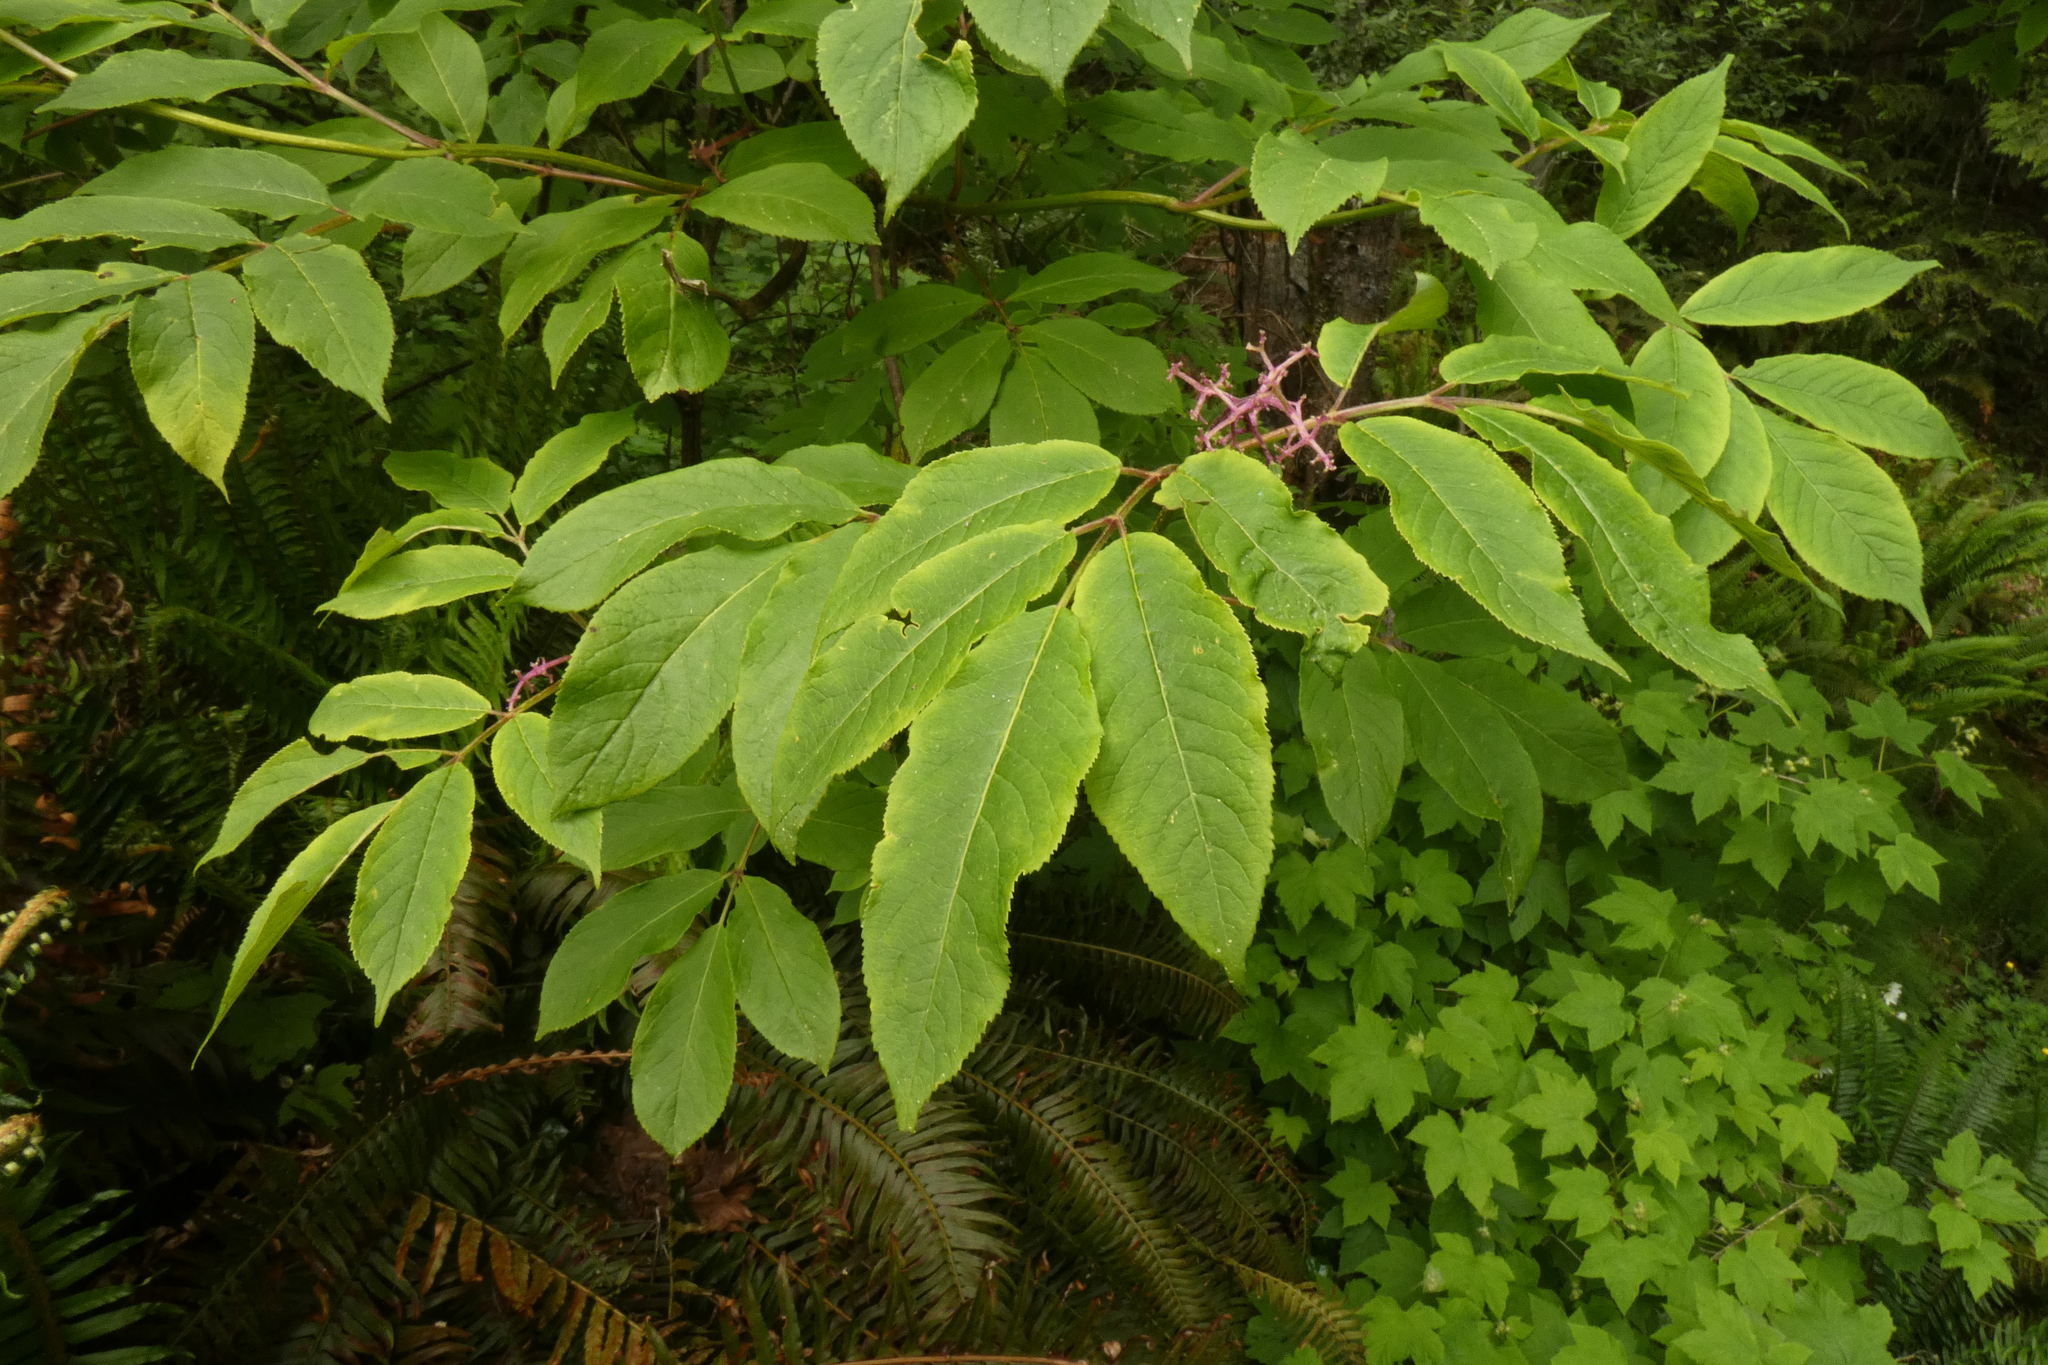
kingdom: Plantae
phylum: Tracheophyta
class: Magnoliopsida
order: Dipsacales
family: Viburnaceae
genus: Sambucus
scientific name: Sambucus racemosa
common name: Red-berried elder
